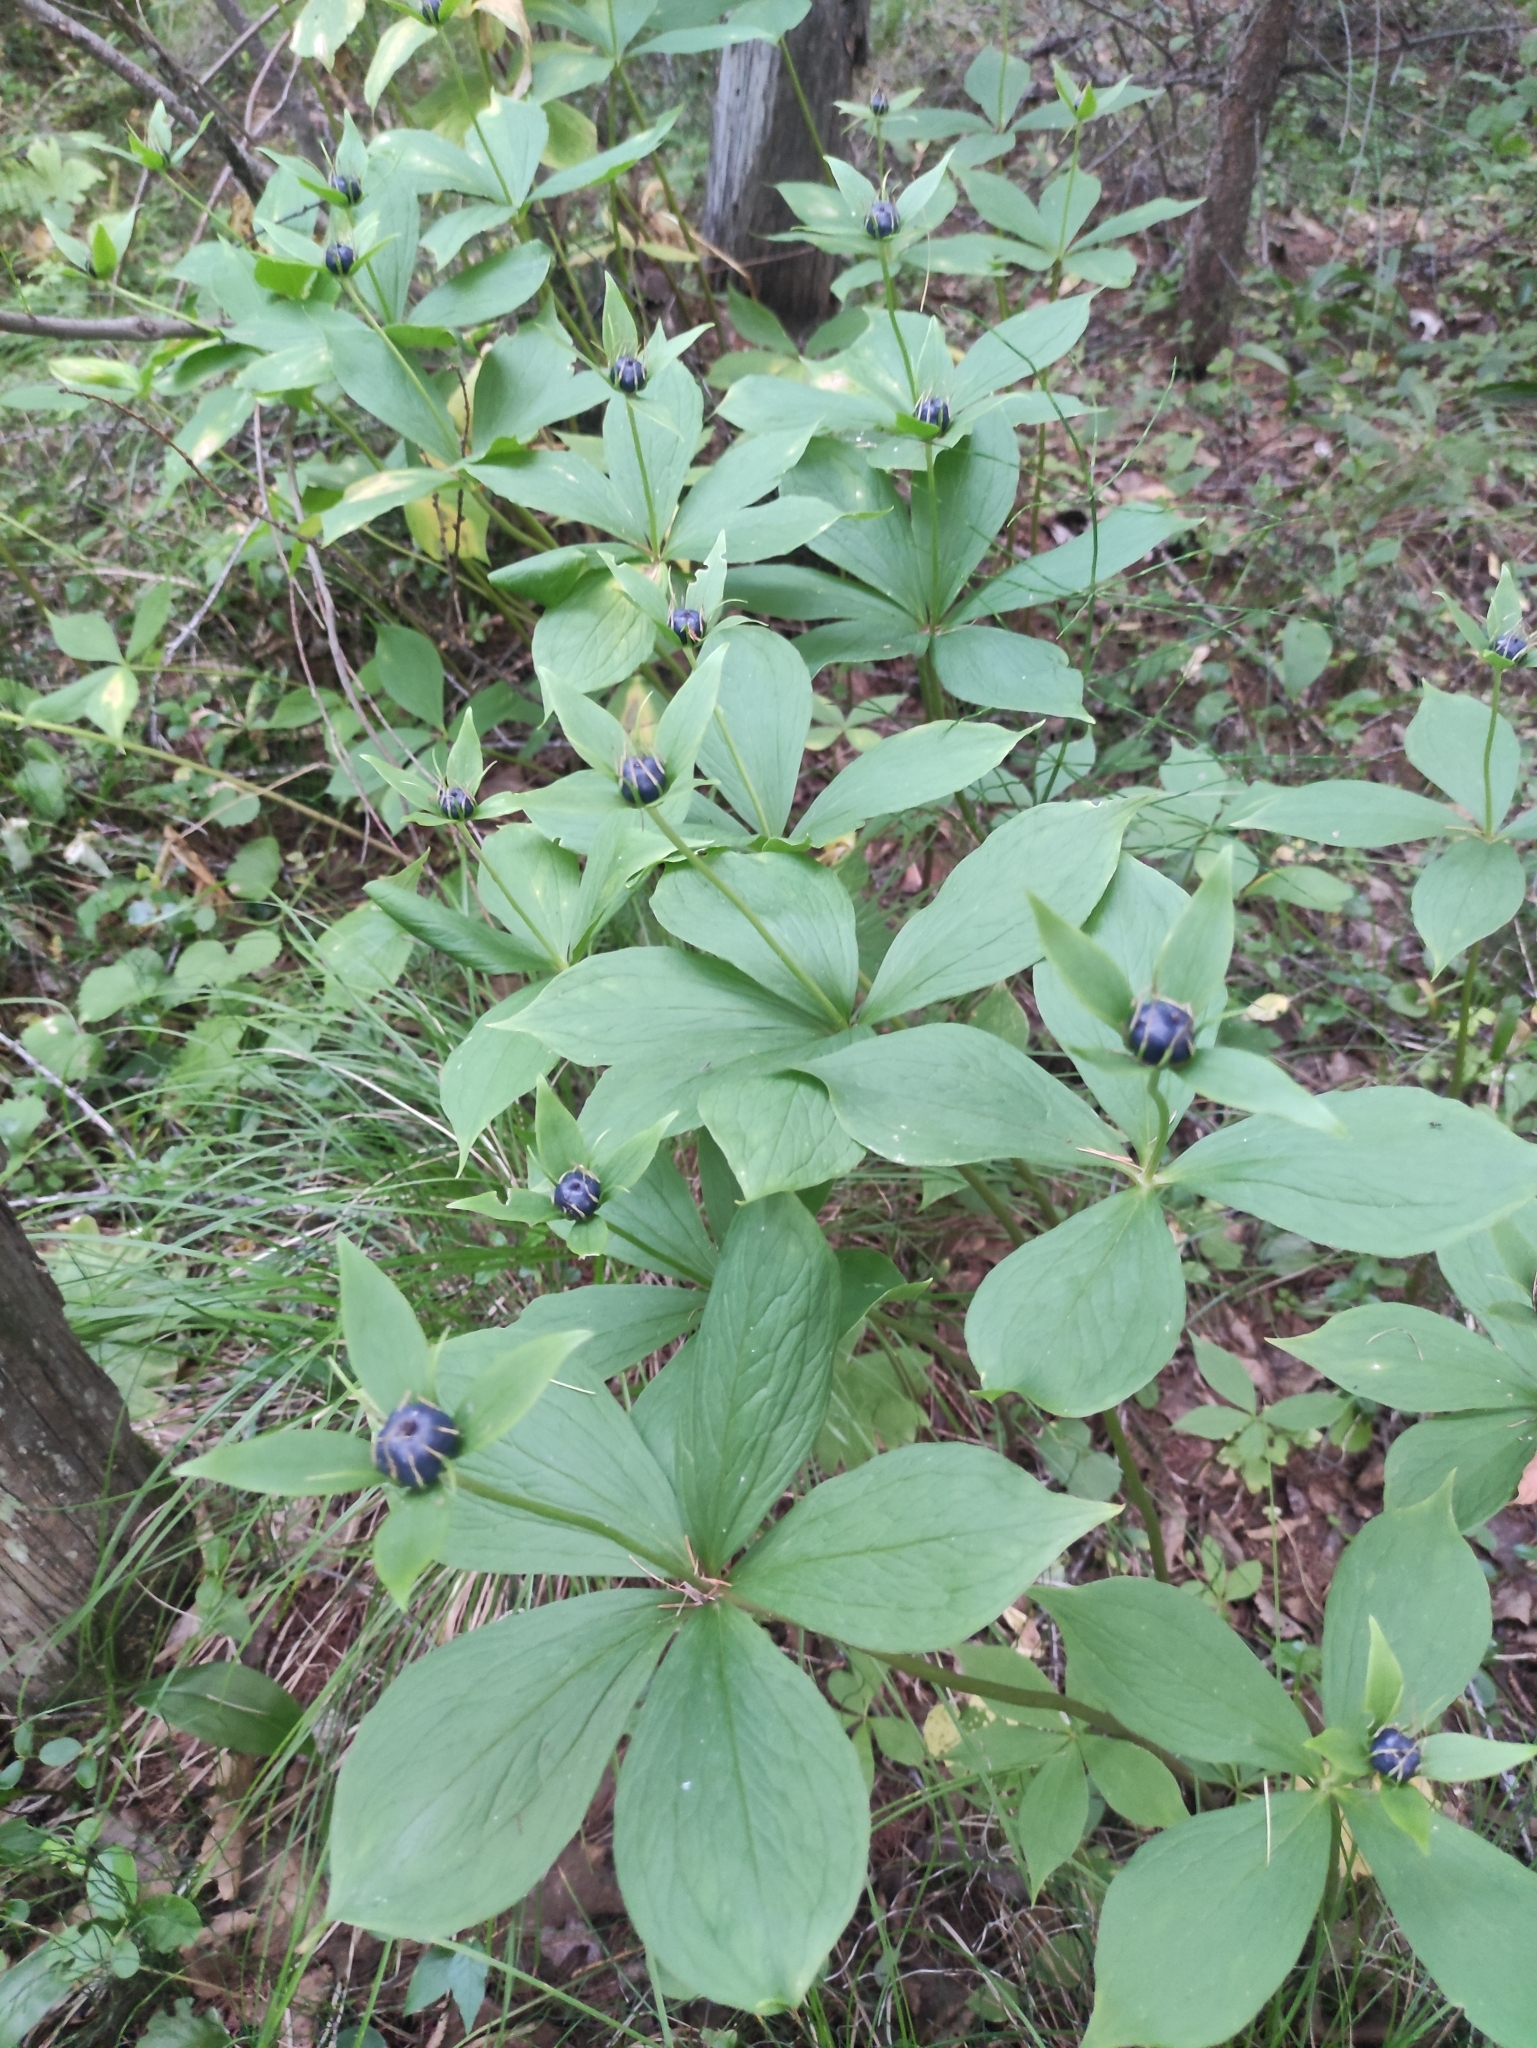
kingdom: Plantae
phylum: Tracheophyta
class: Liliopsida
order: Liliales
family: Melanthiaceae
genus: Paris
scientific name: Paris verticillata
